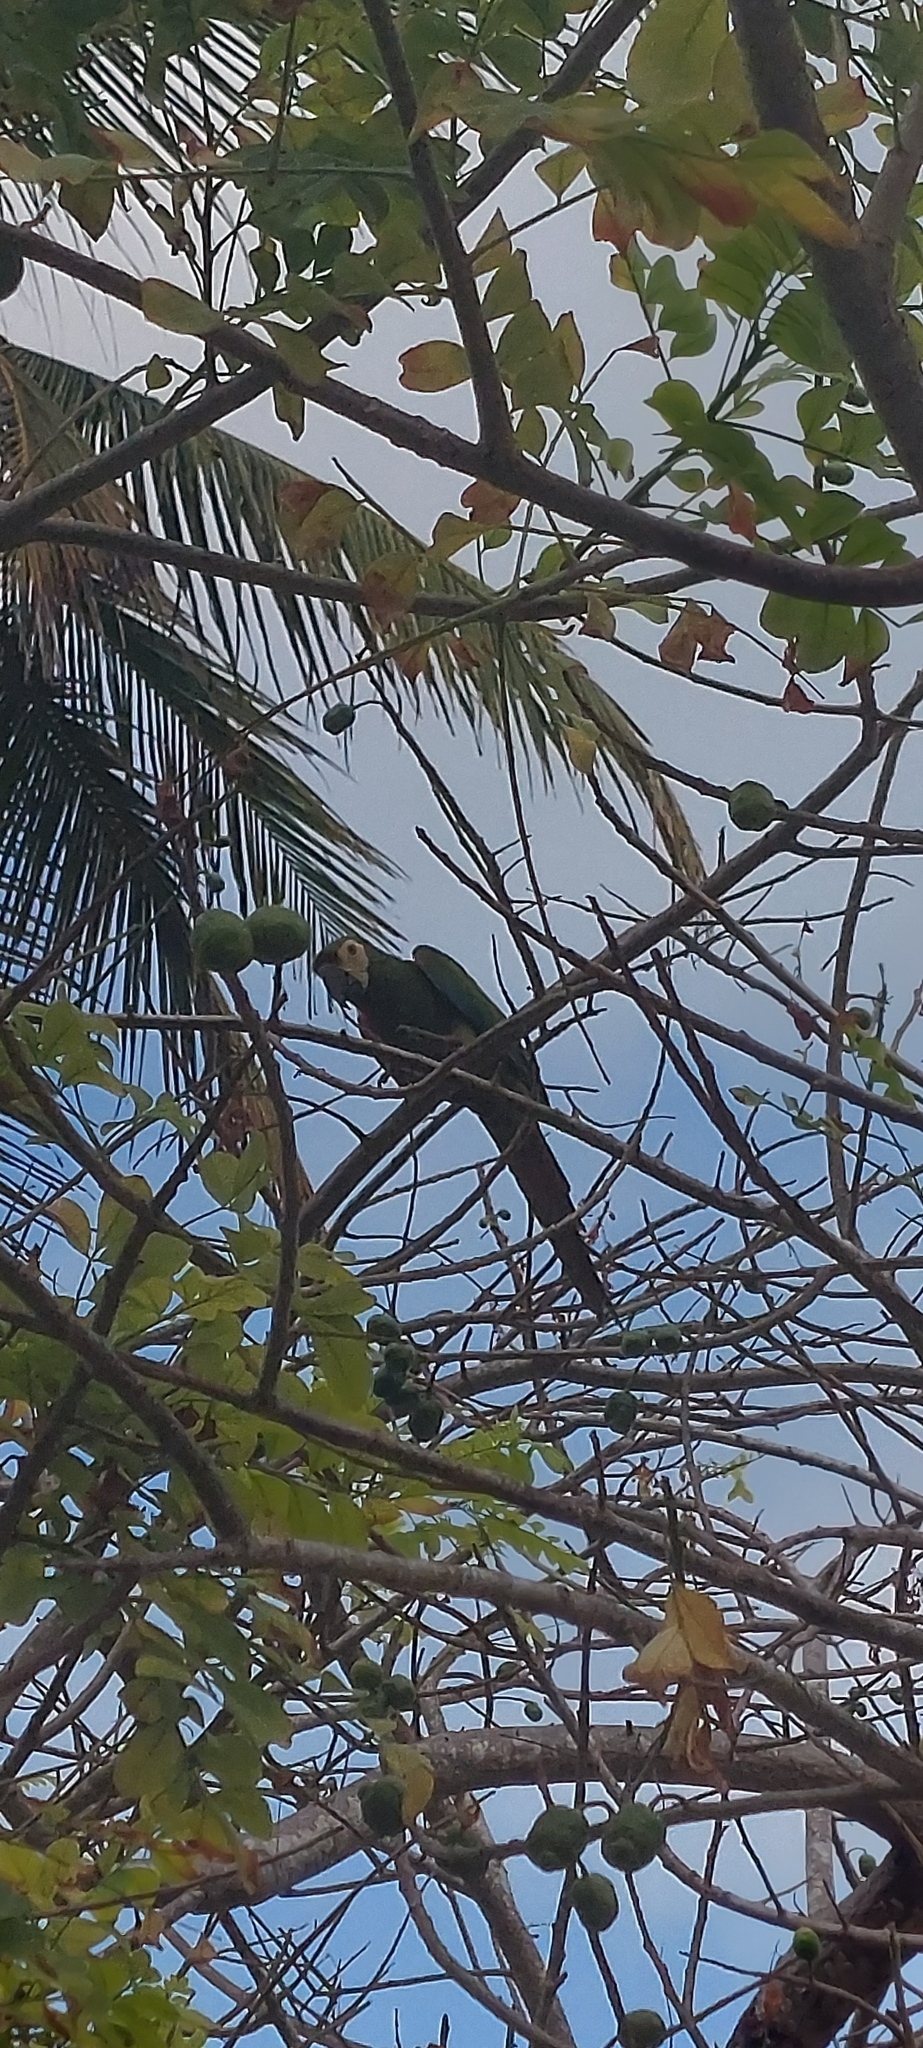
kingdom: Animalia
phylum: Chordata
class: Aves
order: Psittaciformes
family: Psittacidae
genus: Ara
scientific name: Ara severus
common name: Chestnut-fronted macaw
